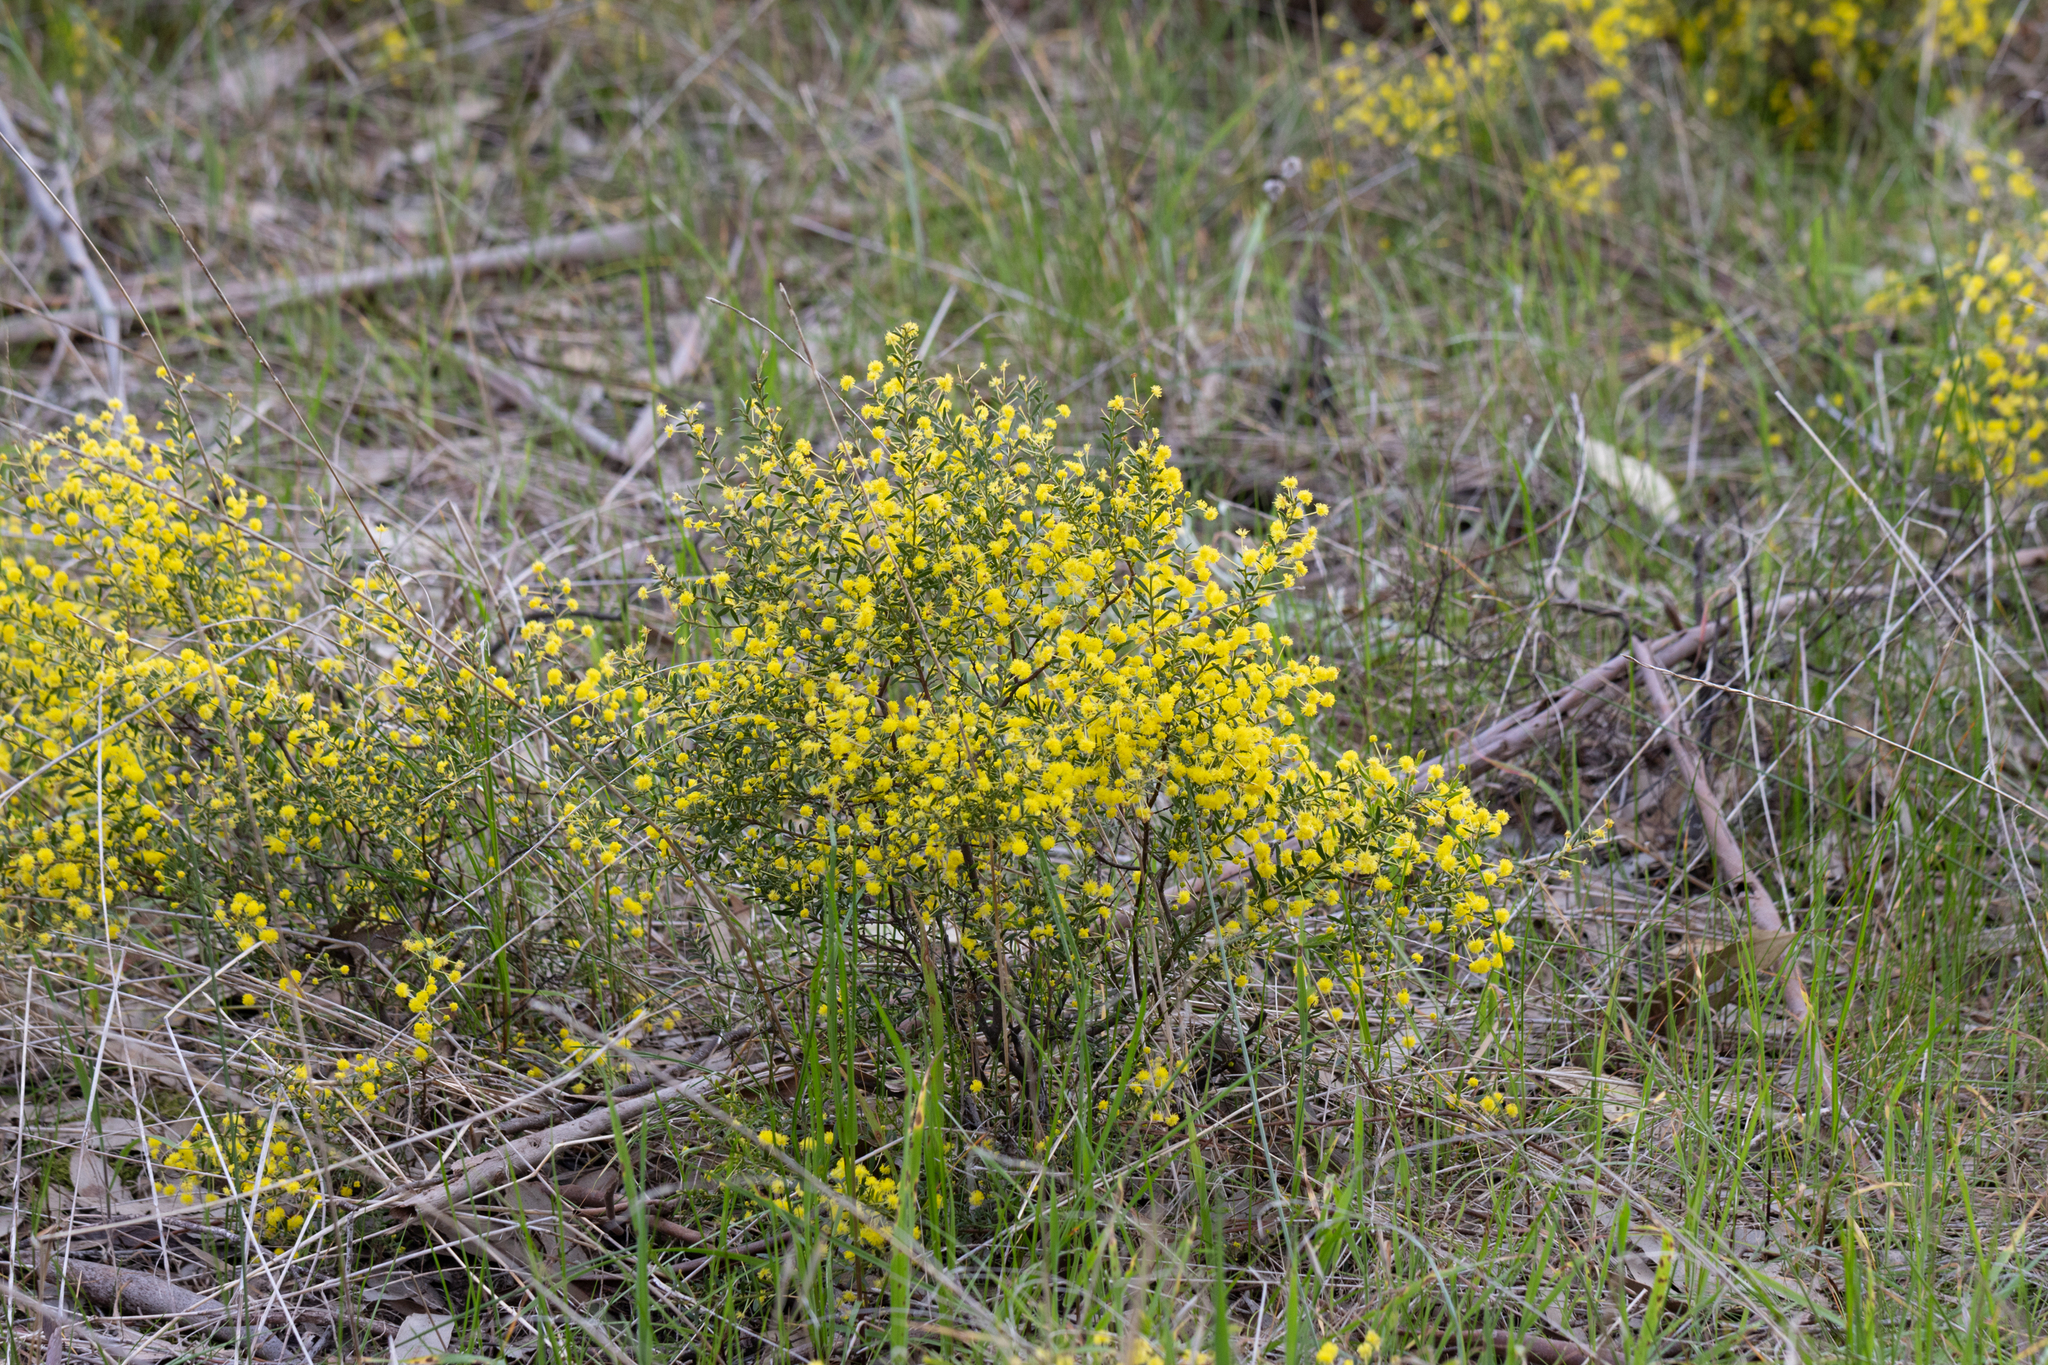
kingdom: Plantae
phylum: Tracheophyta
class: Magnoliopsida
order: Fabales
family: Fabaceae
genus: Acacia
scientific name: Acacia acinacea
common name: Gold-dust acacia
